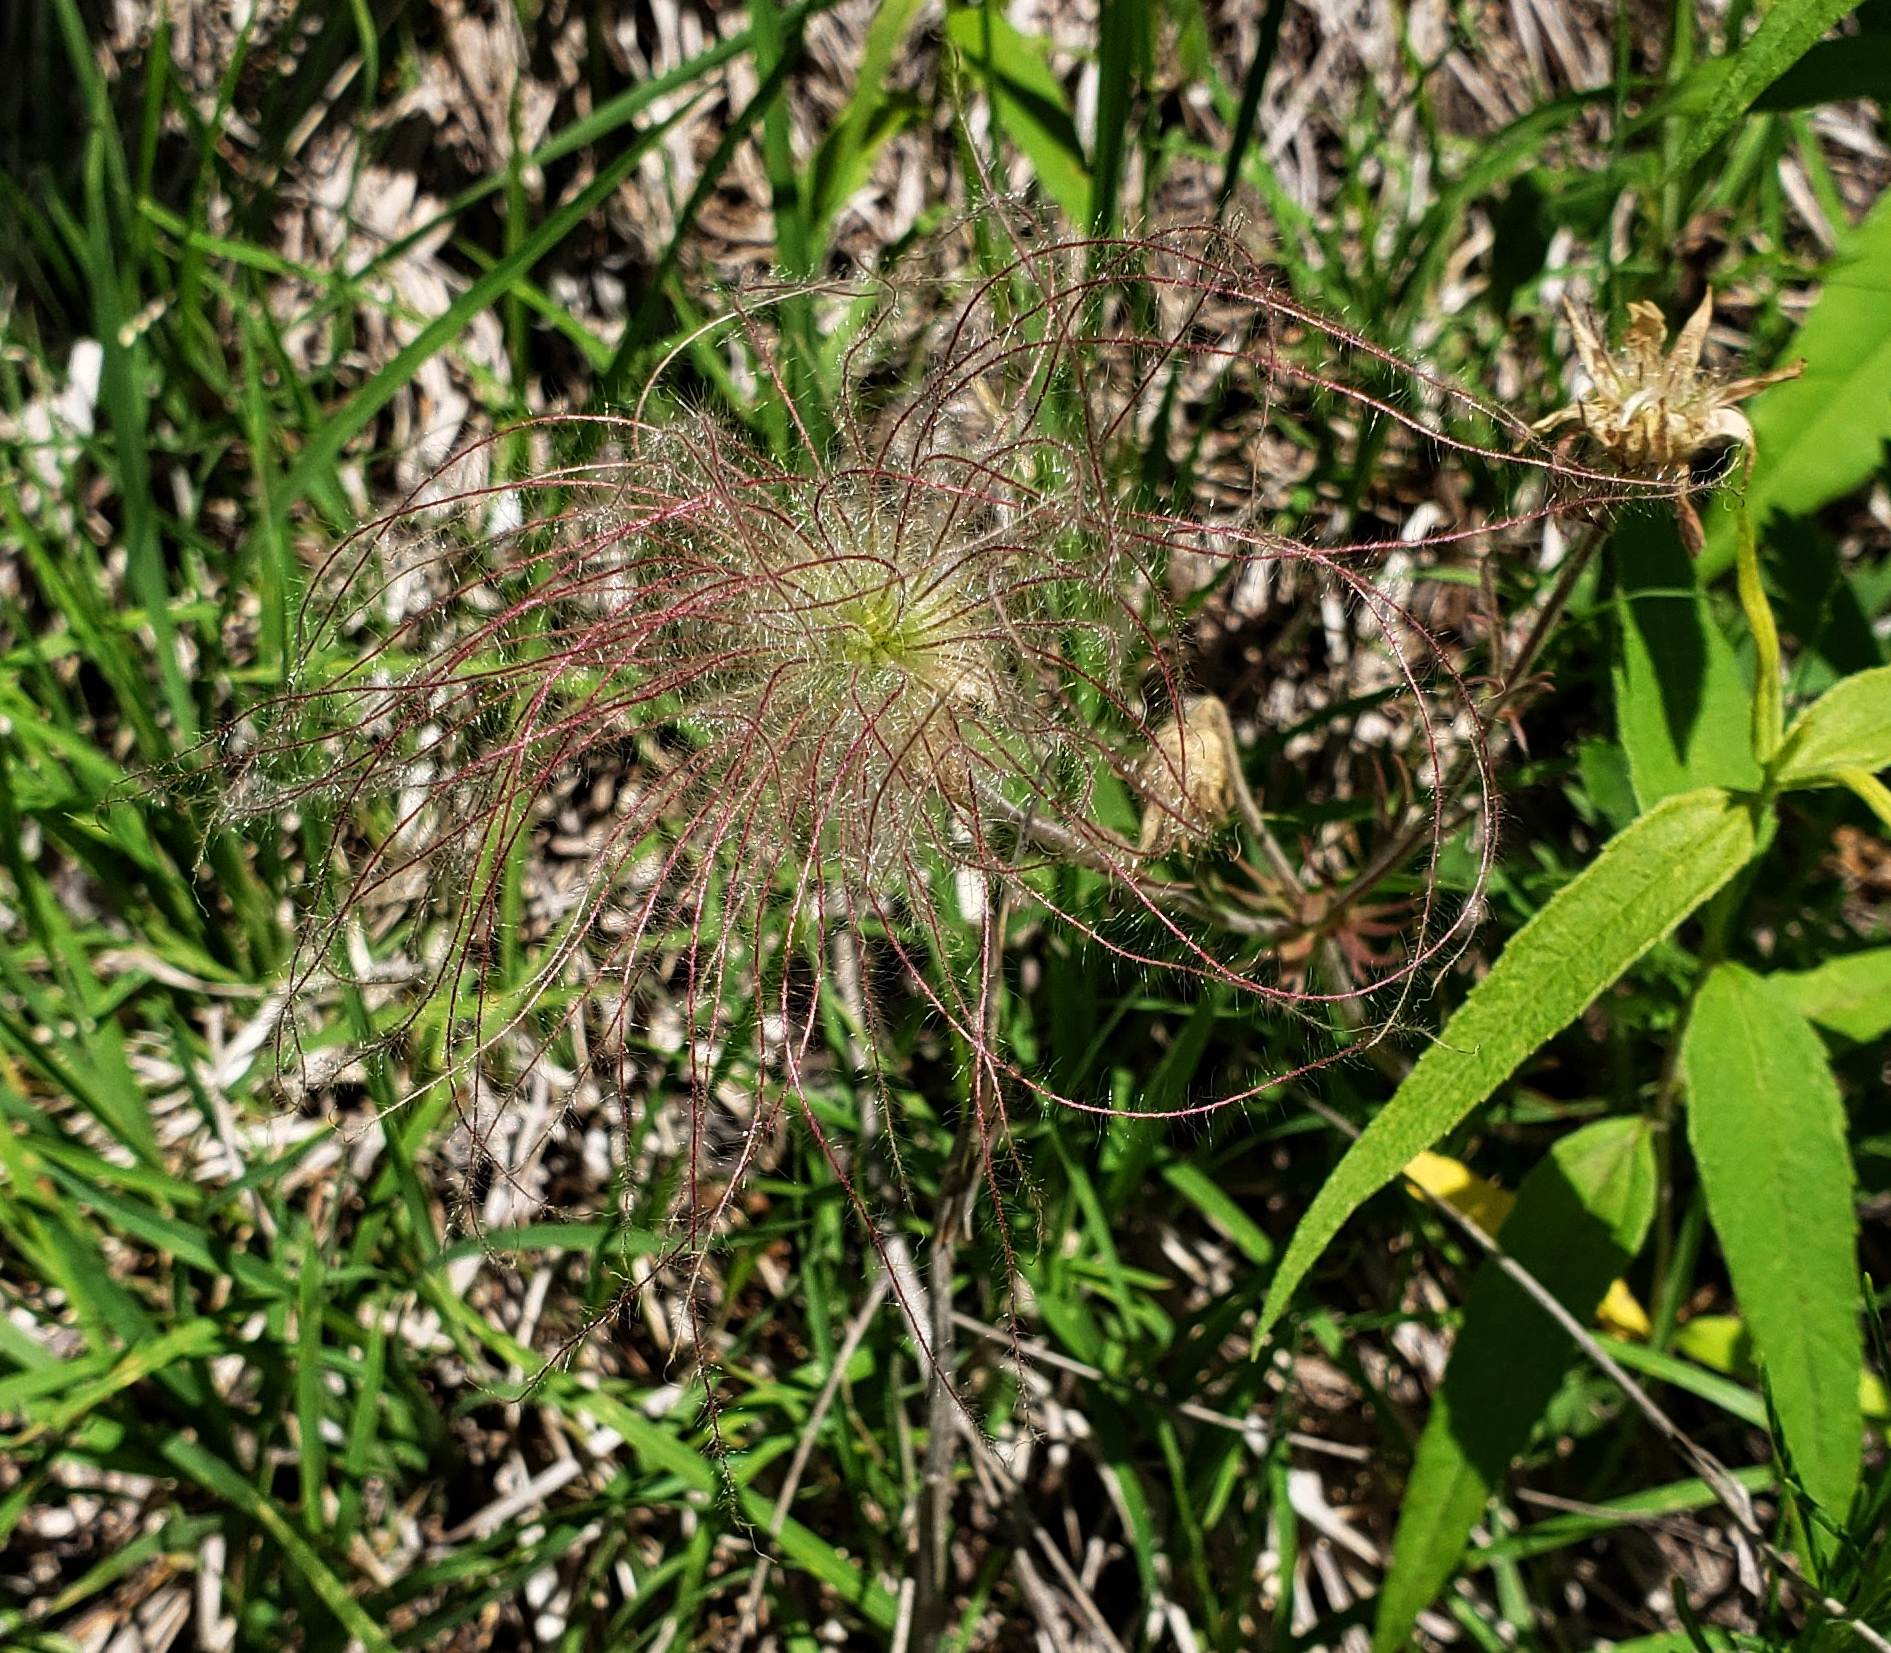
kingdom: Plantae
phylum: Tracheophyta
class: Magnoliopsida
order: Rosales
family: Rosaceae
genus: Geum
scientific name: Geum triflorum
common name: Old man's whiskers
